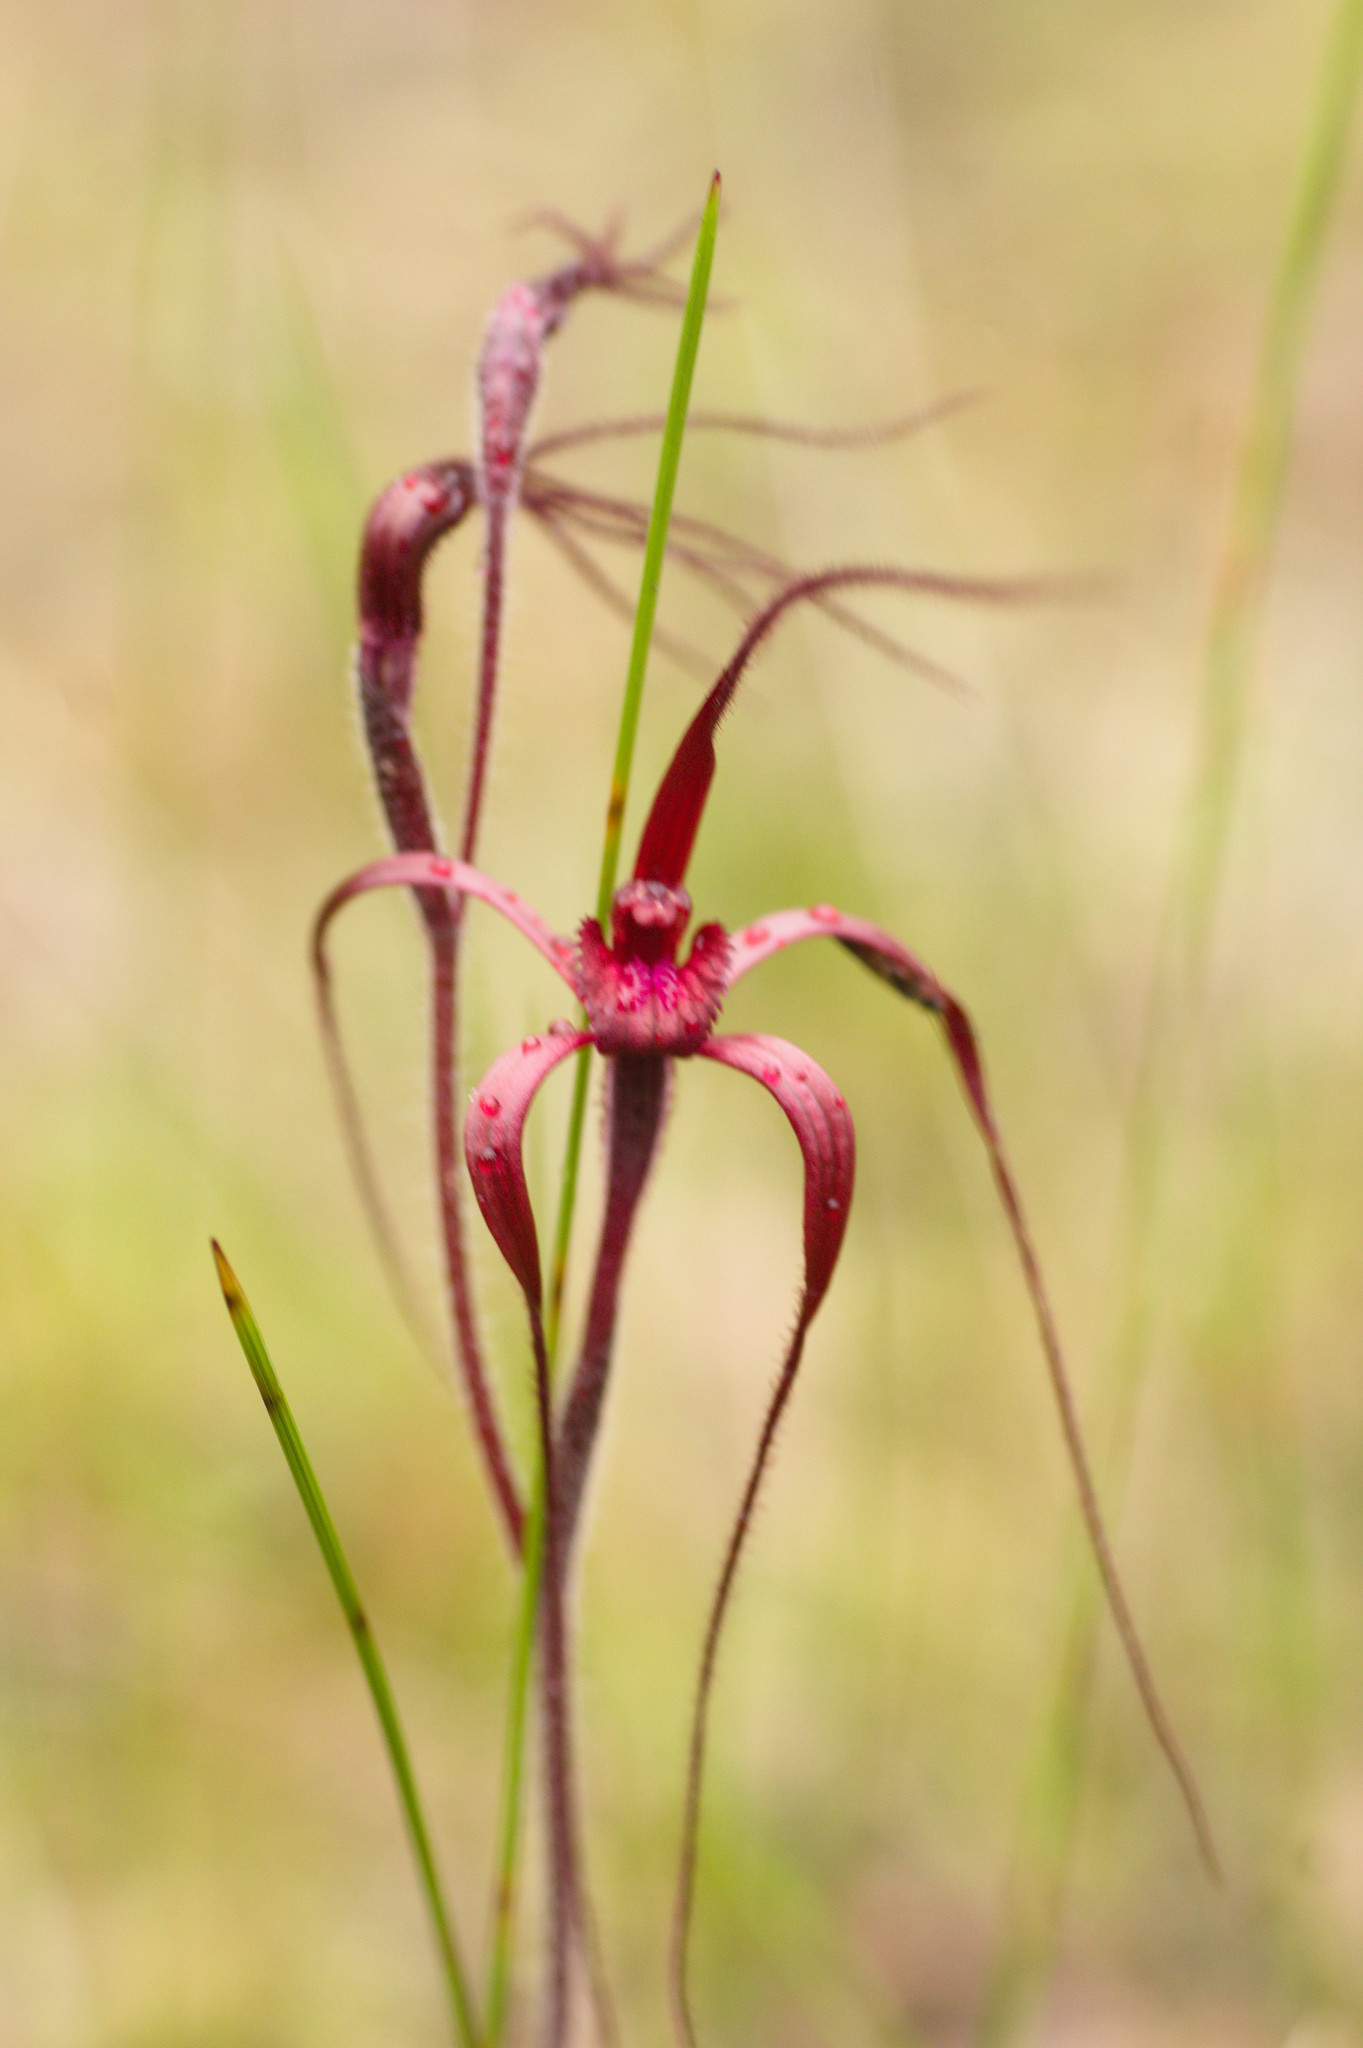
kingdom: Plantae
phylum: Tracheophyta
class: Liliopsida
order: Asparagales
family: Orchidaceae
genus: Caladenia
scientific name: Caladenia filifera
